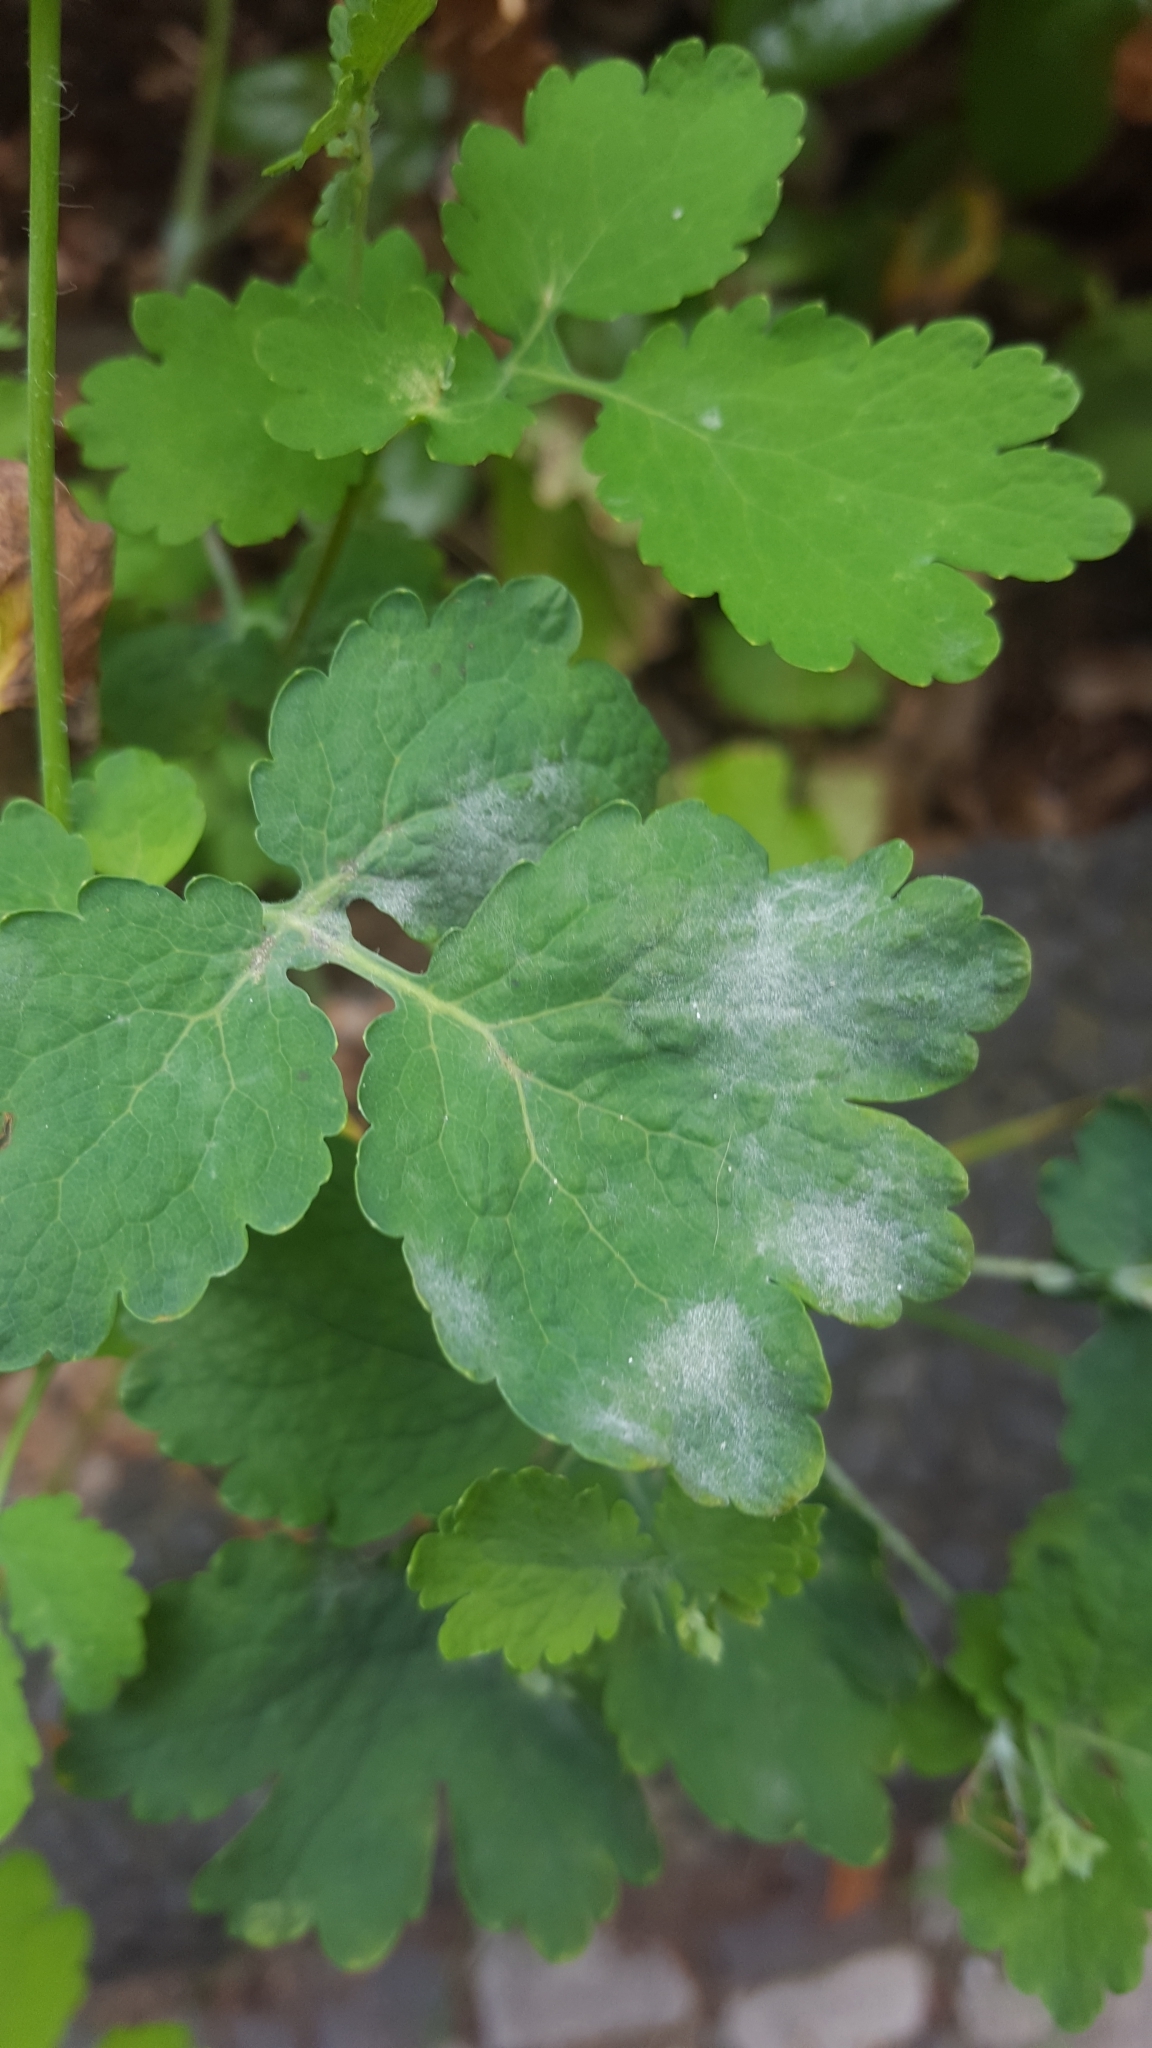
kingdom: Fungi
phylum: Ascomycota
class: Leotiomycetes
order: Helotiales
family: Erysiphaceae
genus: Erysiphe
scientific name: Erysiphe macleayae
